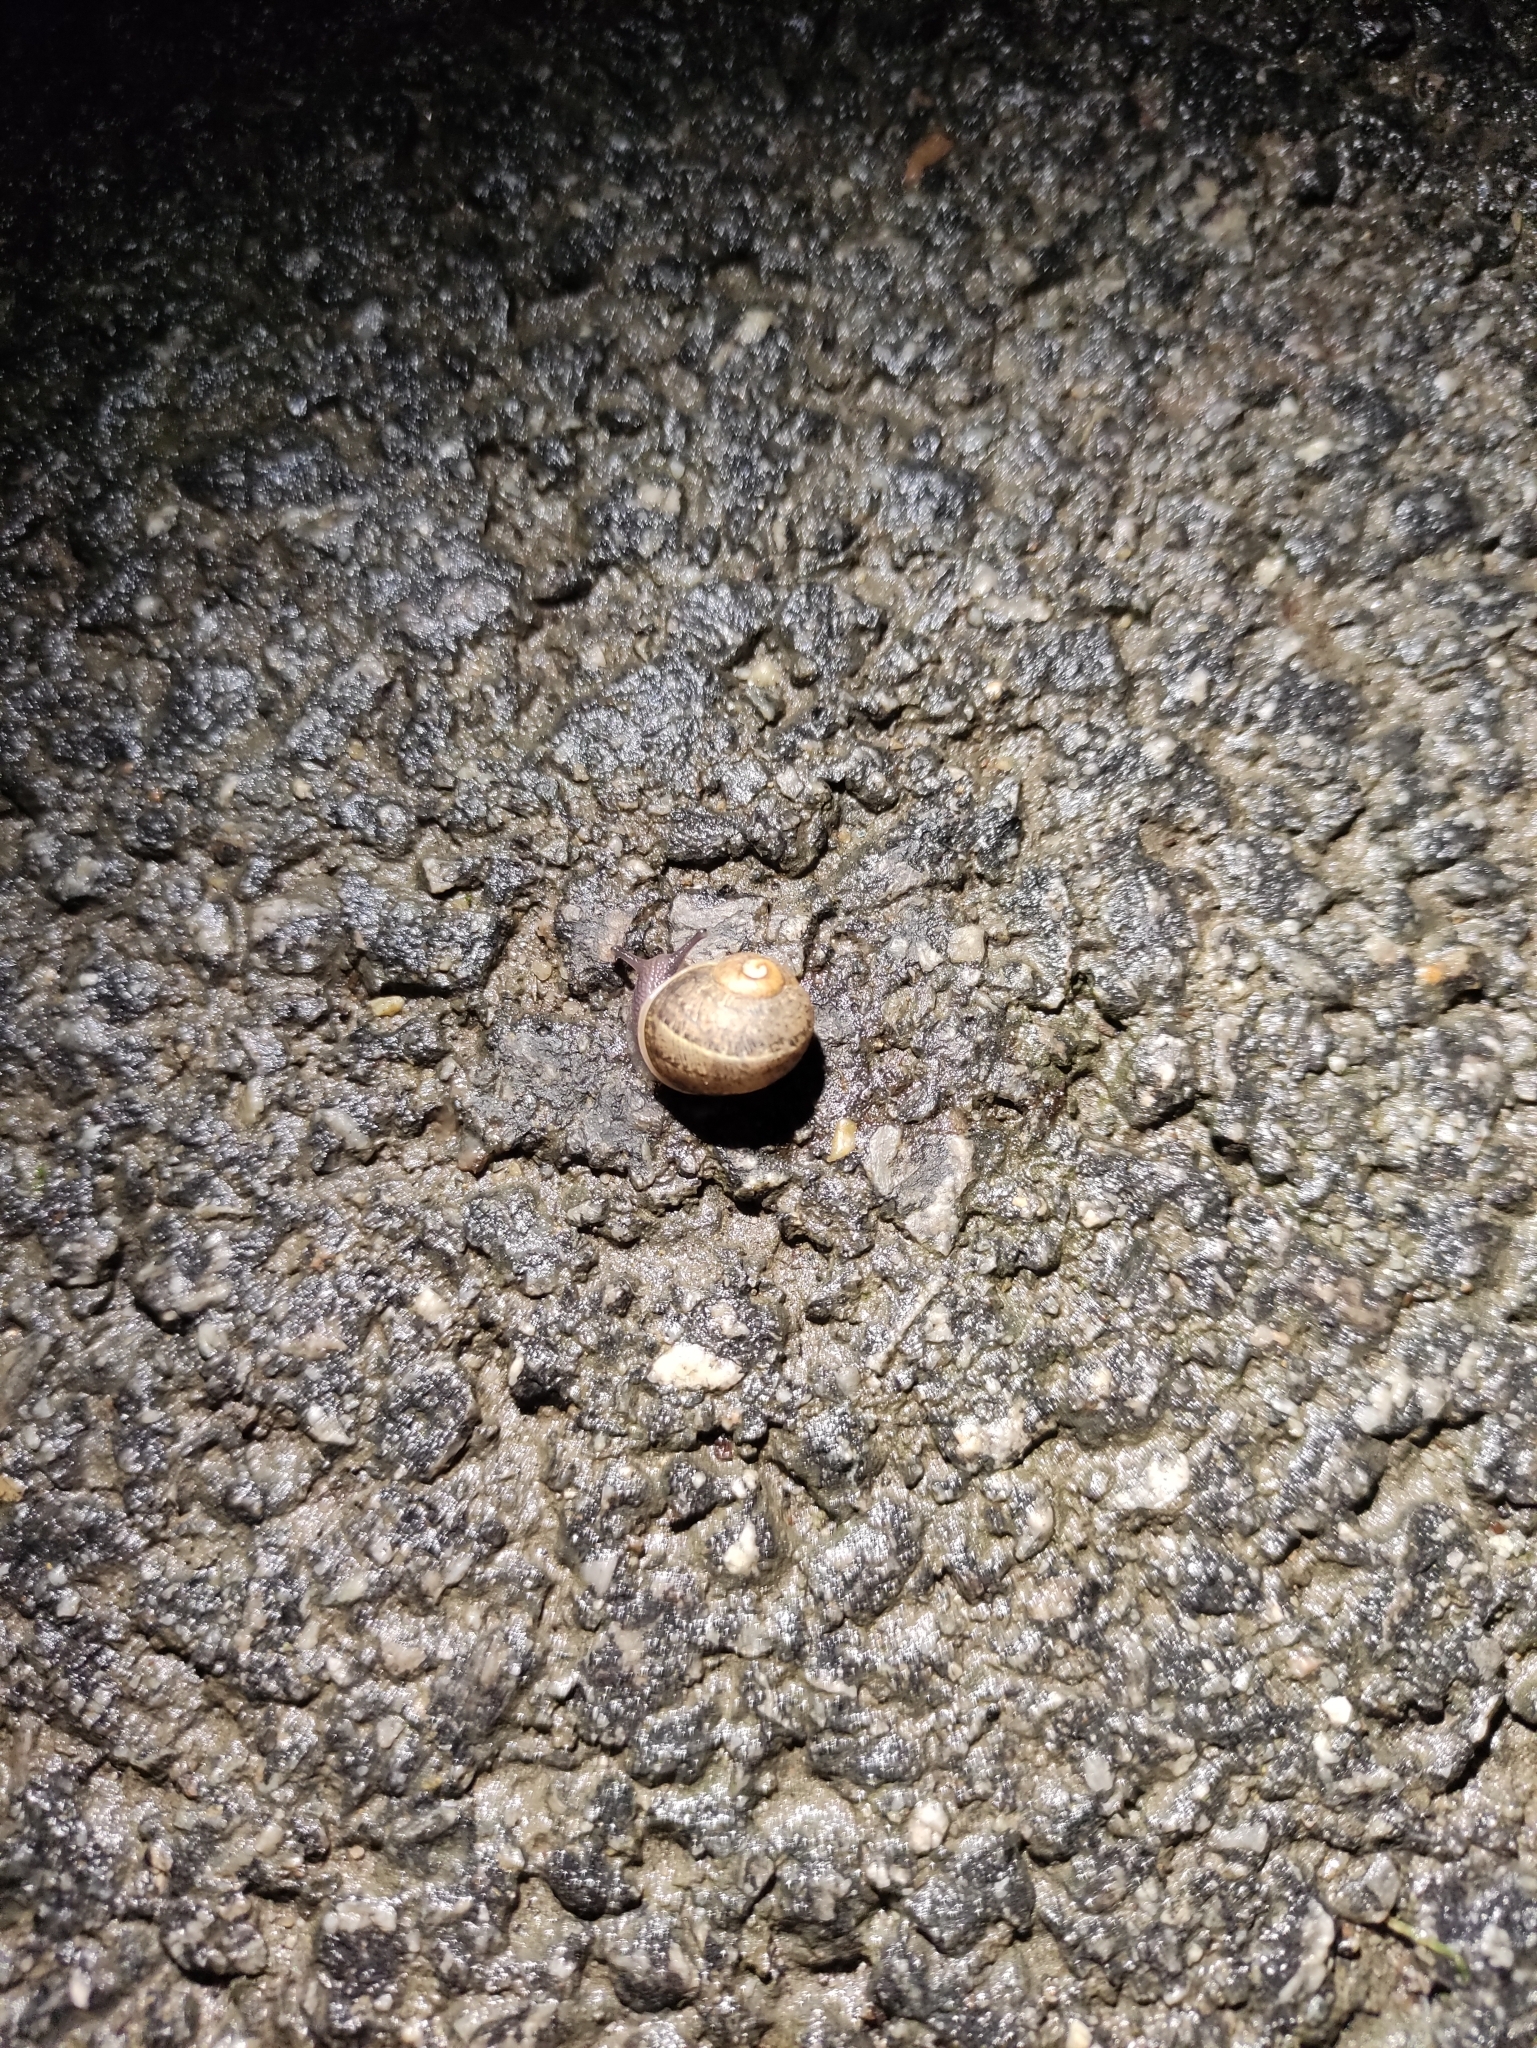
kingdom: Animalia
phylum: Mollusca
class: Gastropoda
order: Stylommatophora
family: Helicidae
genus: Cornu
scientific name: Cornu aspersum
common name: Brown garden snail
